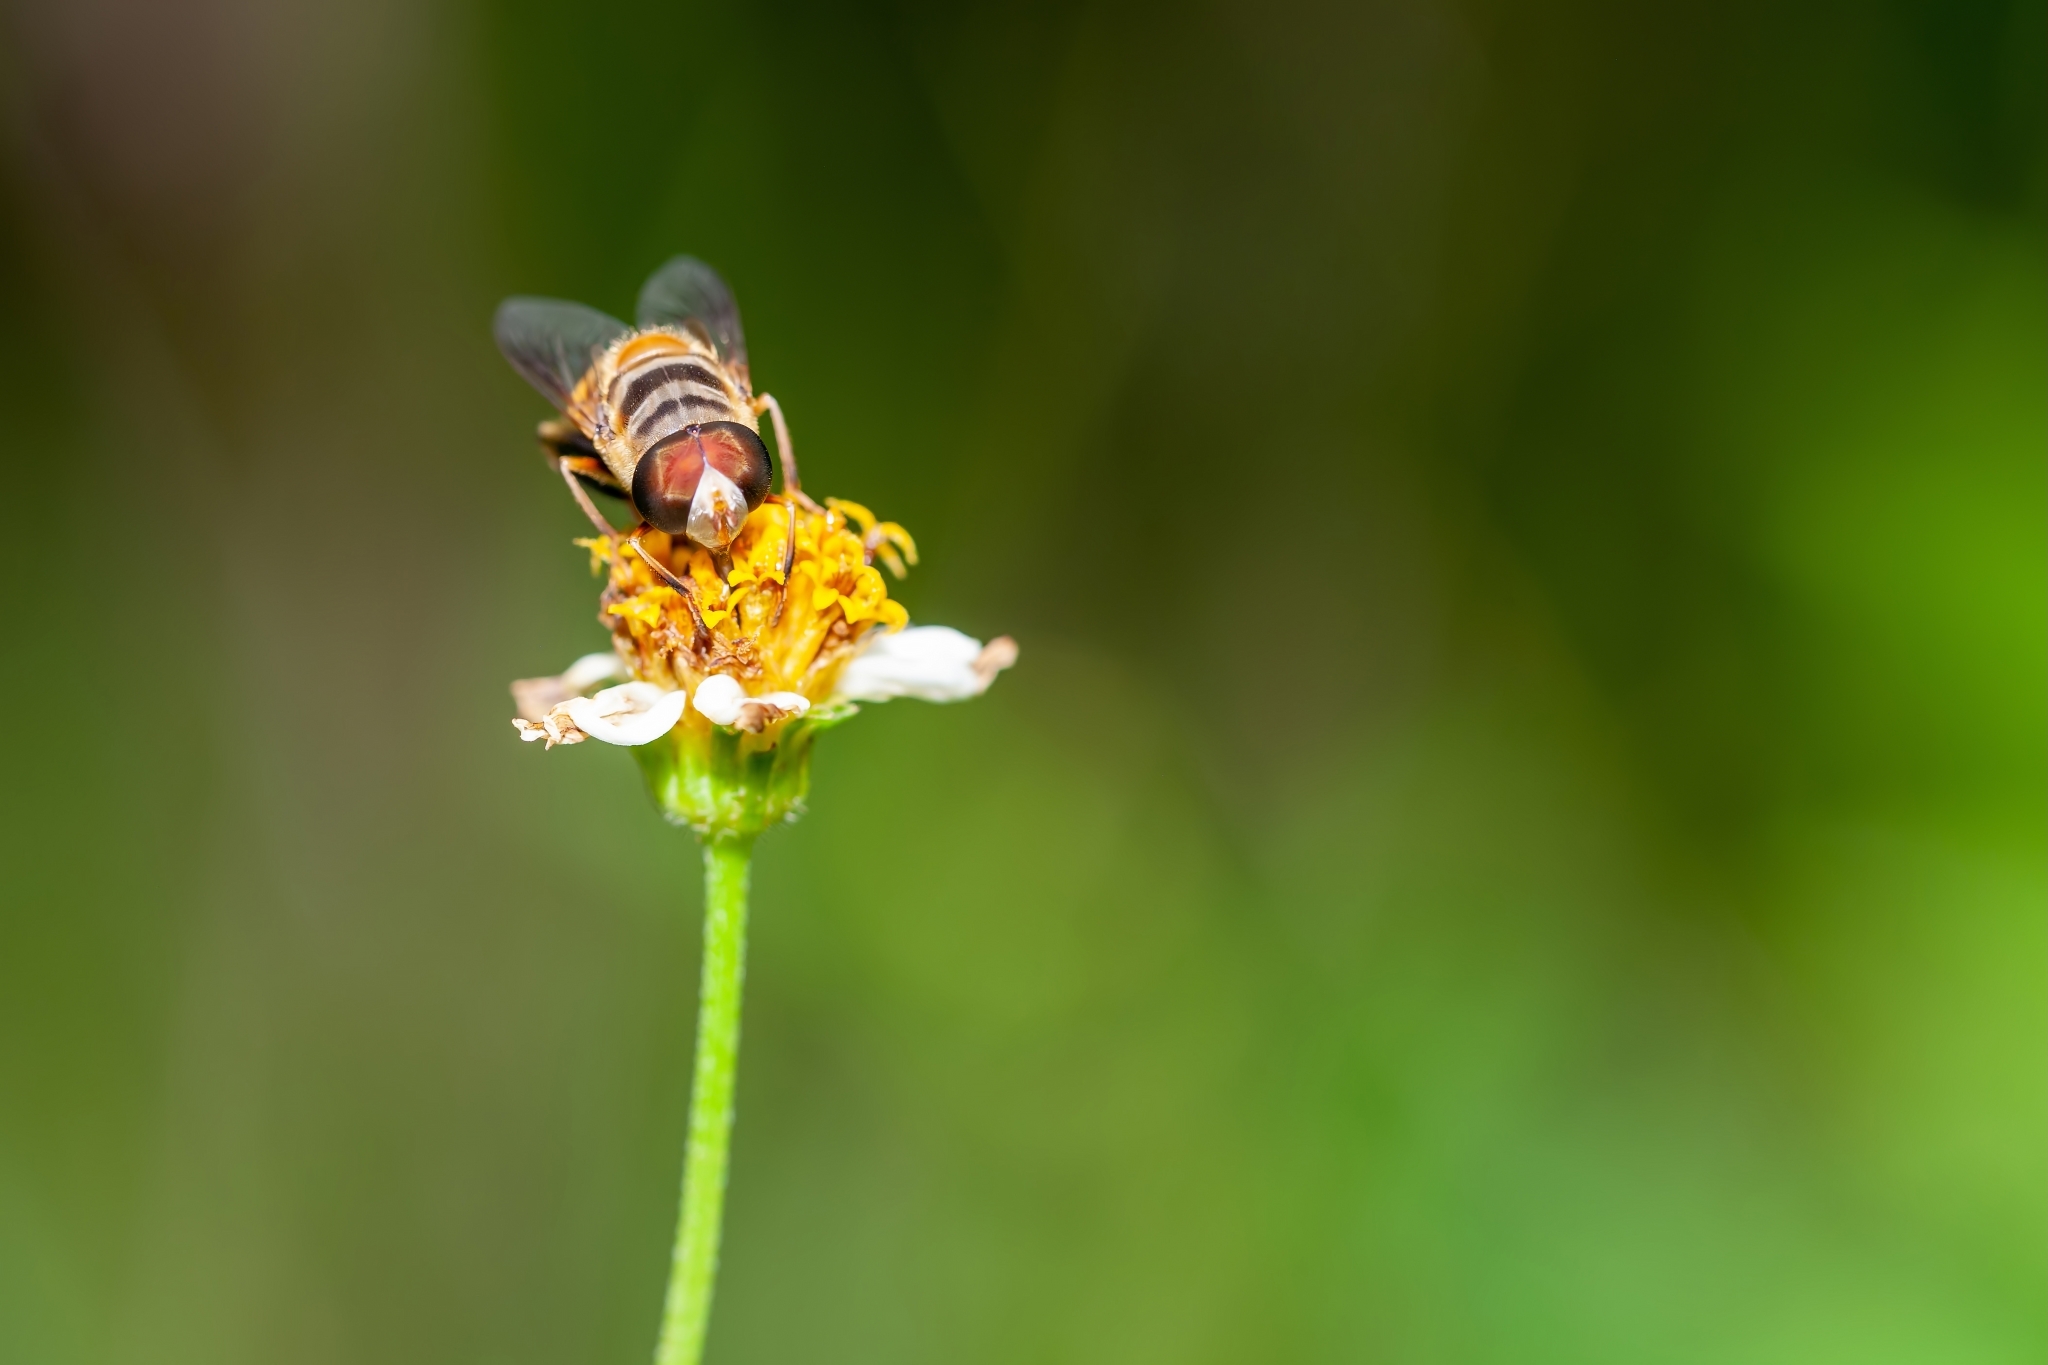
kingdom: Animalia
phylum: Arthropoda
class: Insecta
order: Diptera
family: Syrphidae
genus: Palpada
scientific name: Palpada vinetorum
